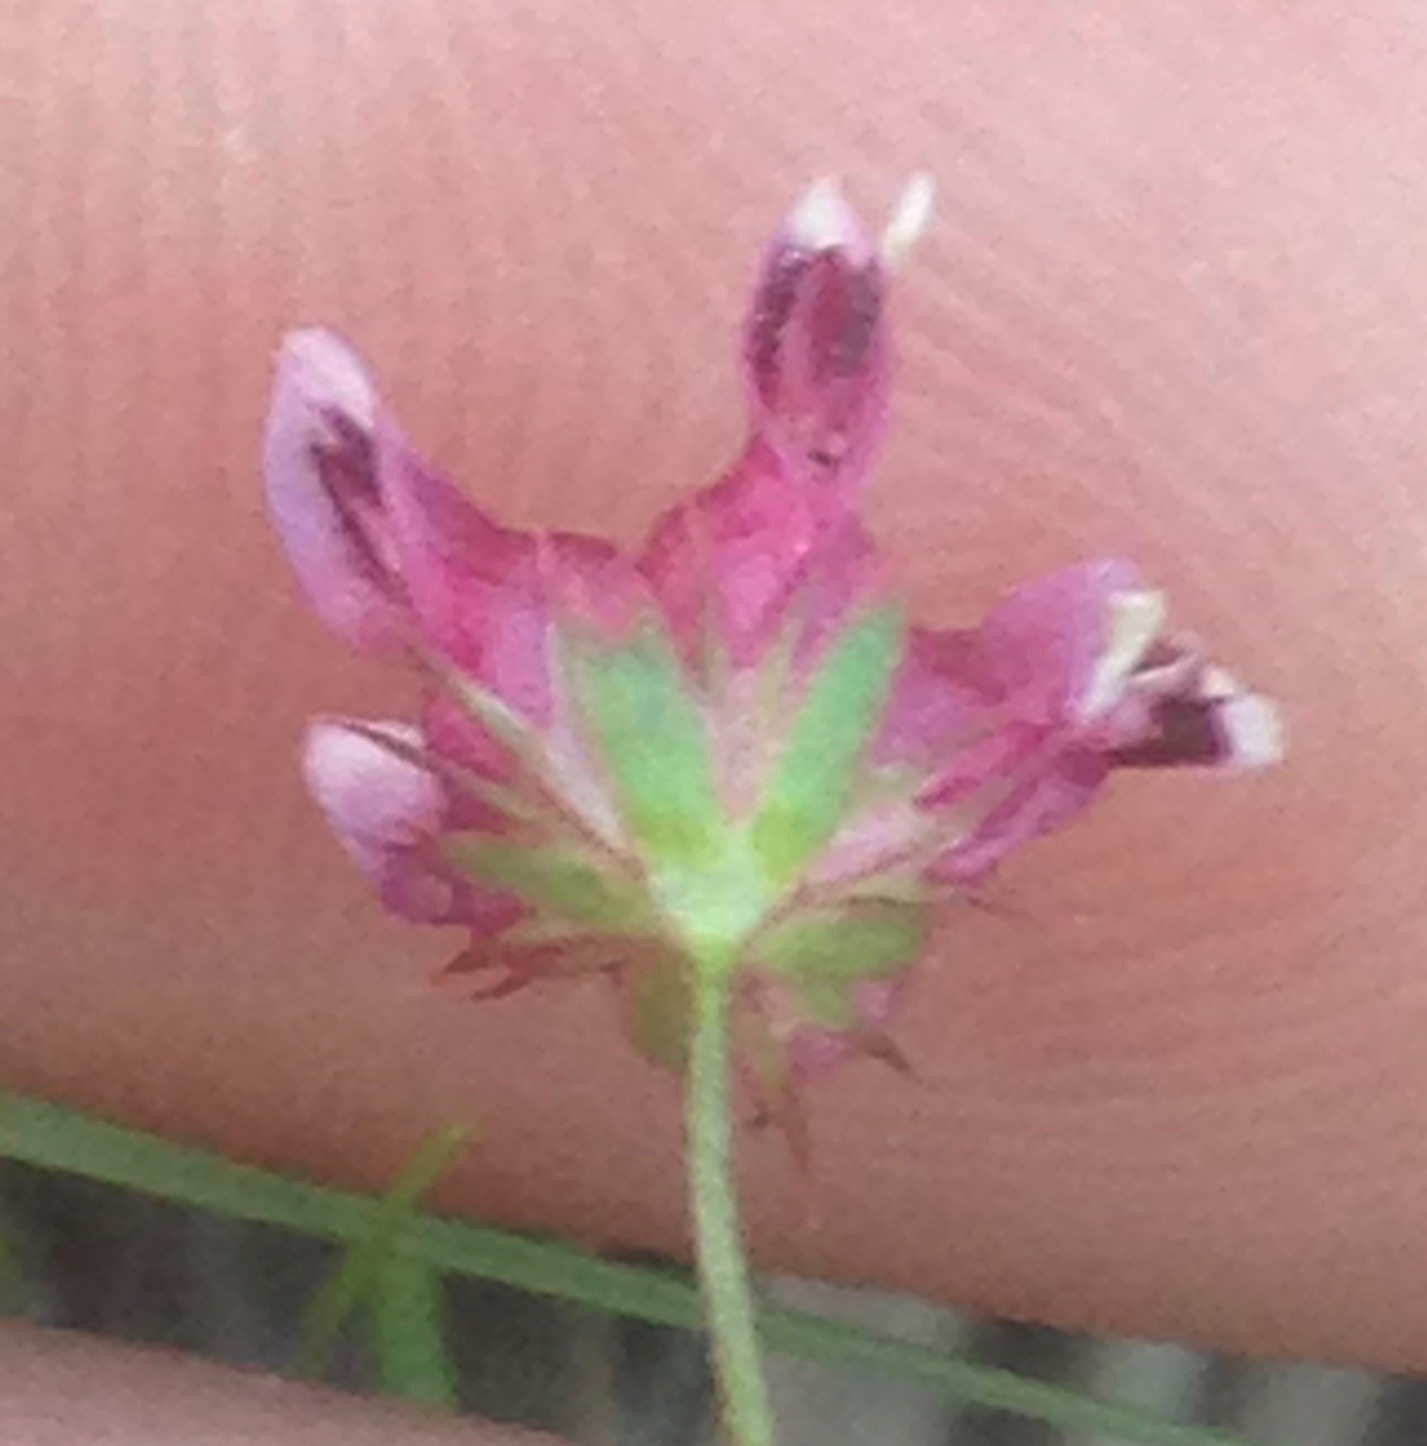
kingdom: Plantae
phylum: Tracheophyta
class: Magnoliopsida
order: Fabales
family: Fabaceae
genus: Trifolium
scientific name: Trifolium depauperatum
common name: Poverty clover
